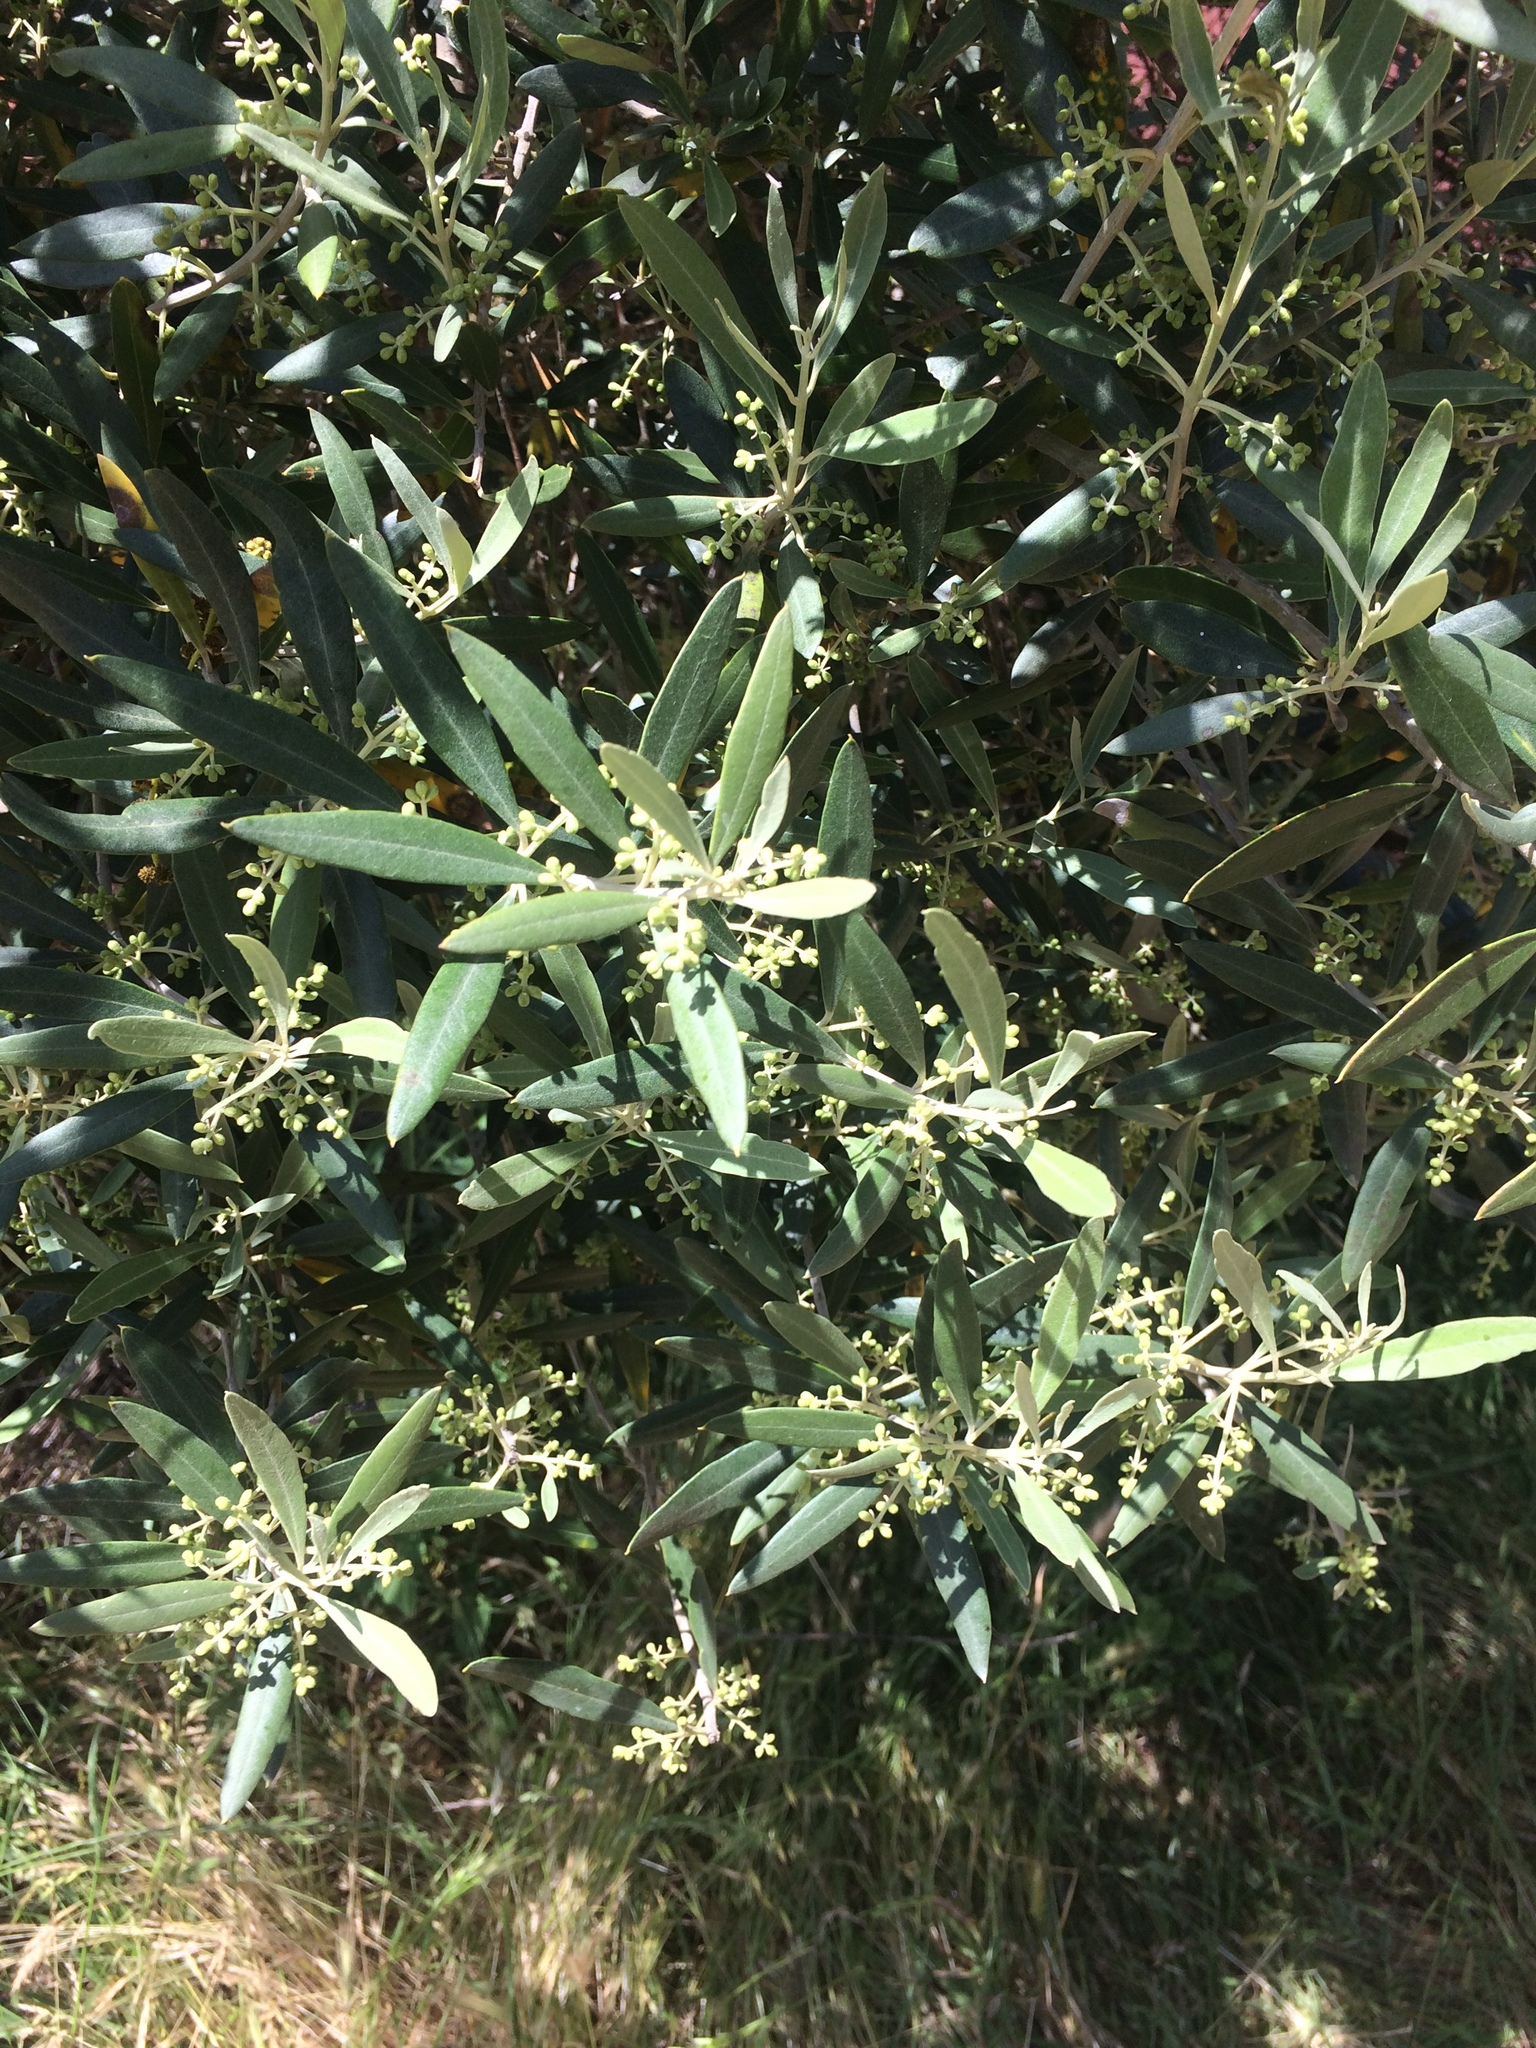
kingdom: Plantae
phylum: Tracheophyta
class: Magnoliopsida
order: Lamiales
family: Oleaceae
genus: Olea
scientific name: Olea europaea
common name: Olive
